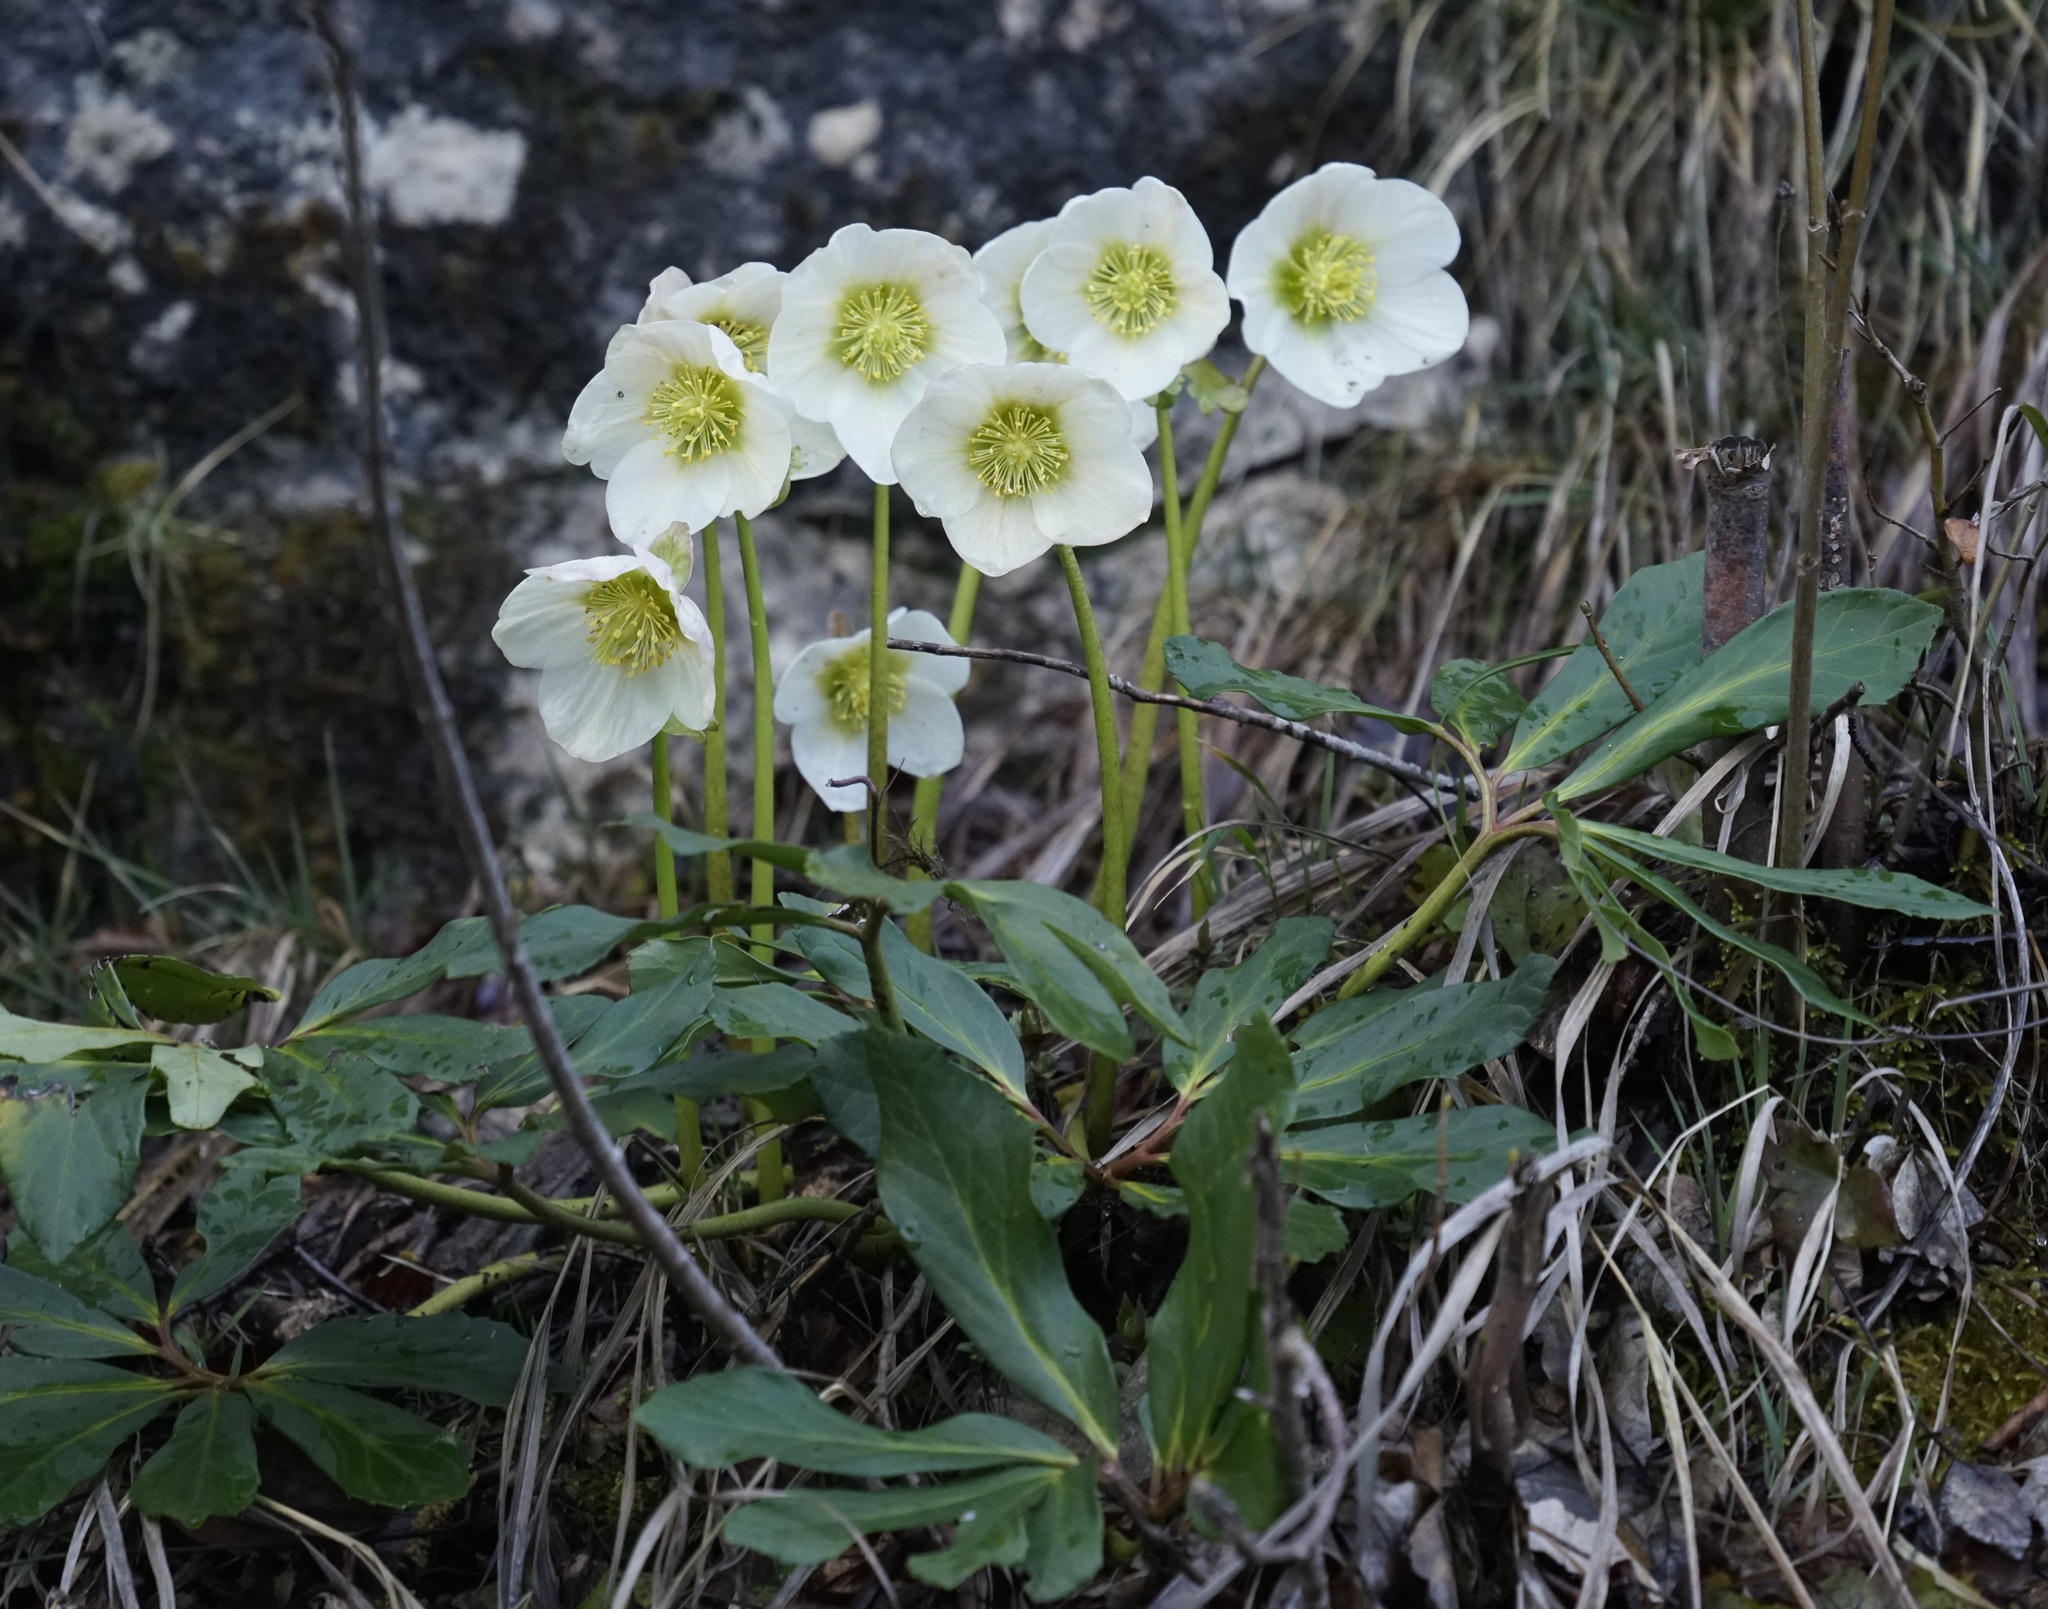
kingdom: Plantae
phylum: Tracheophyta
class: Magnoliopsida
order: Ranunculales
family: Ranunculaceae
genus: Helleborus
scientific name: Helleborus niger
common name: Black hellebore
